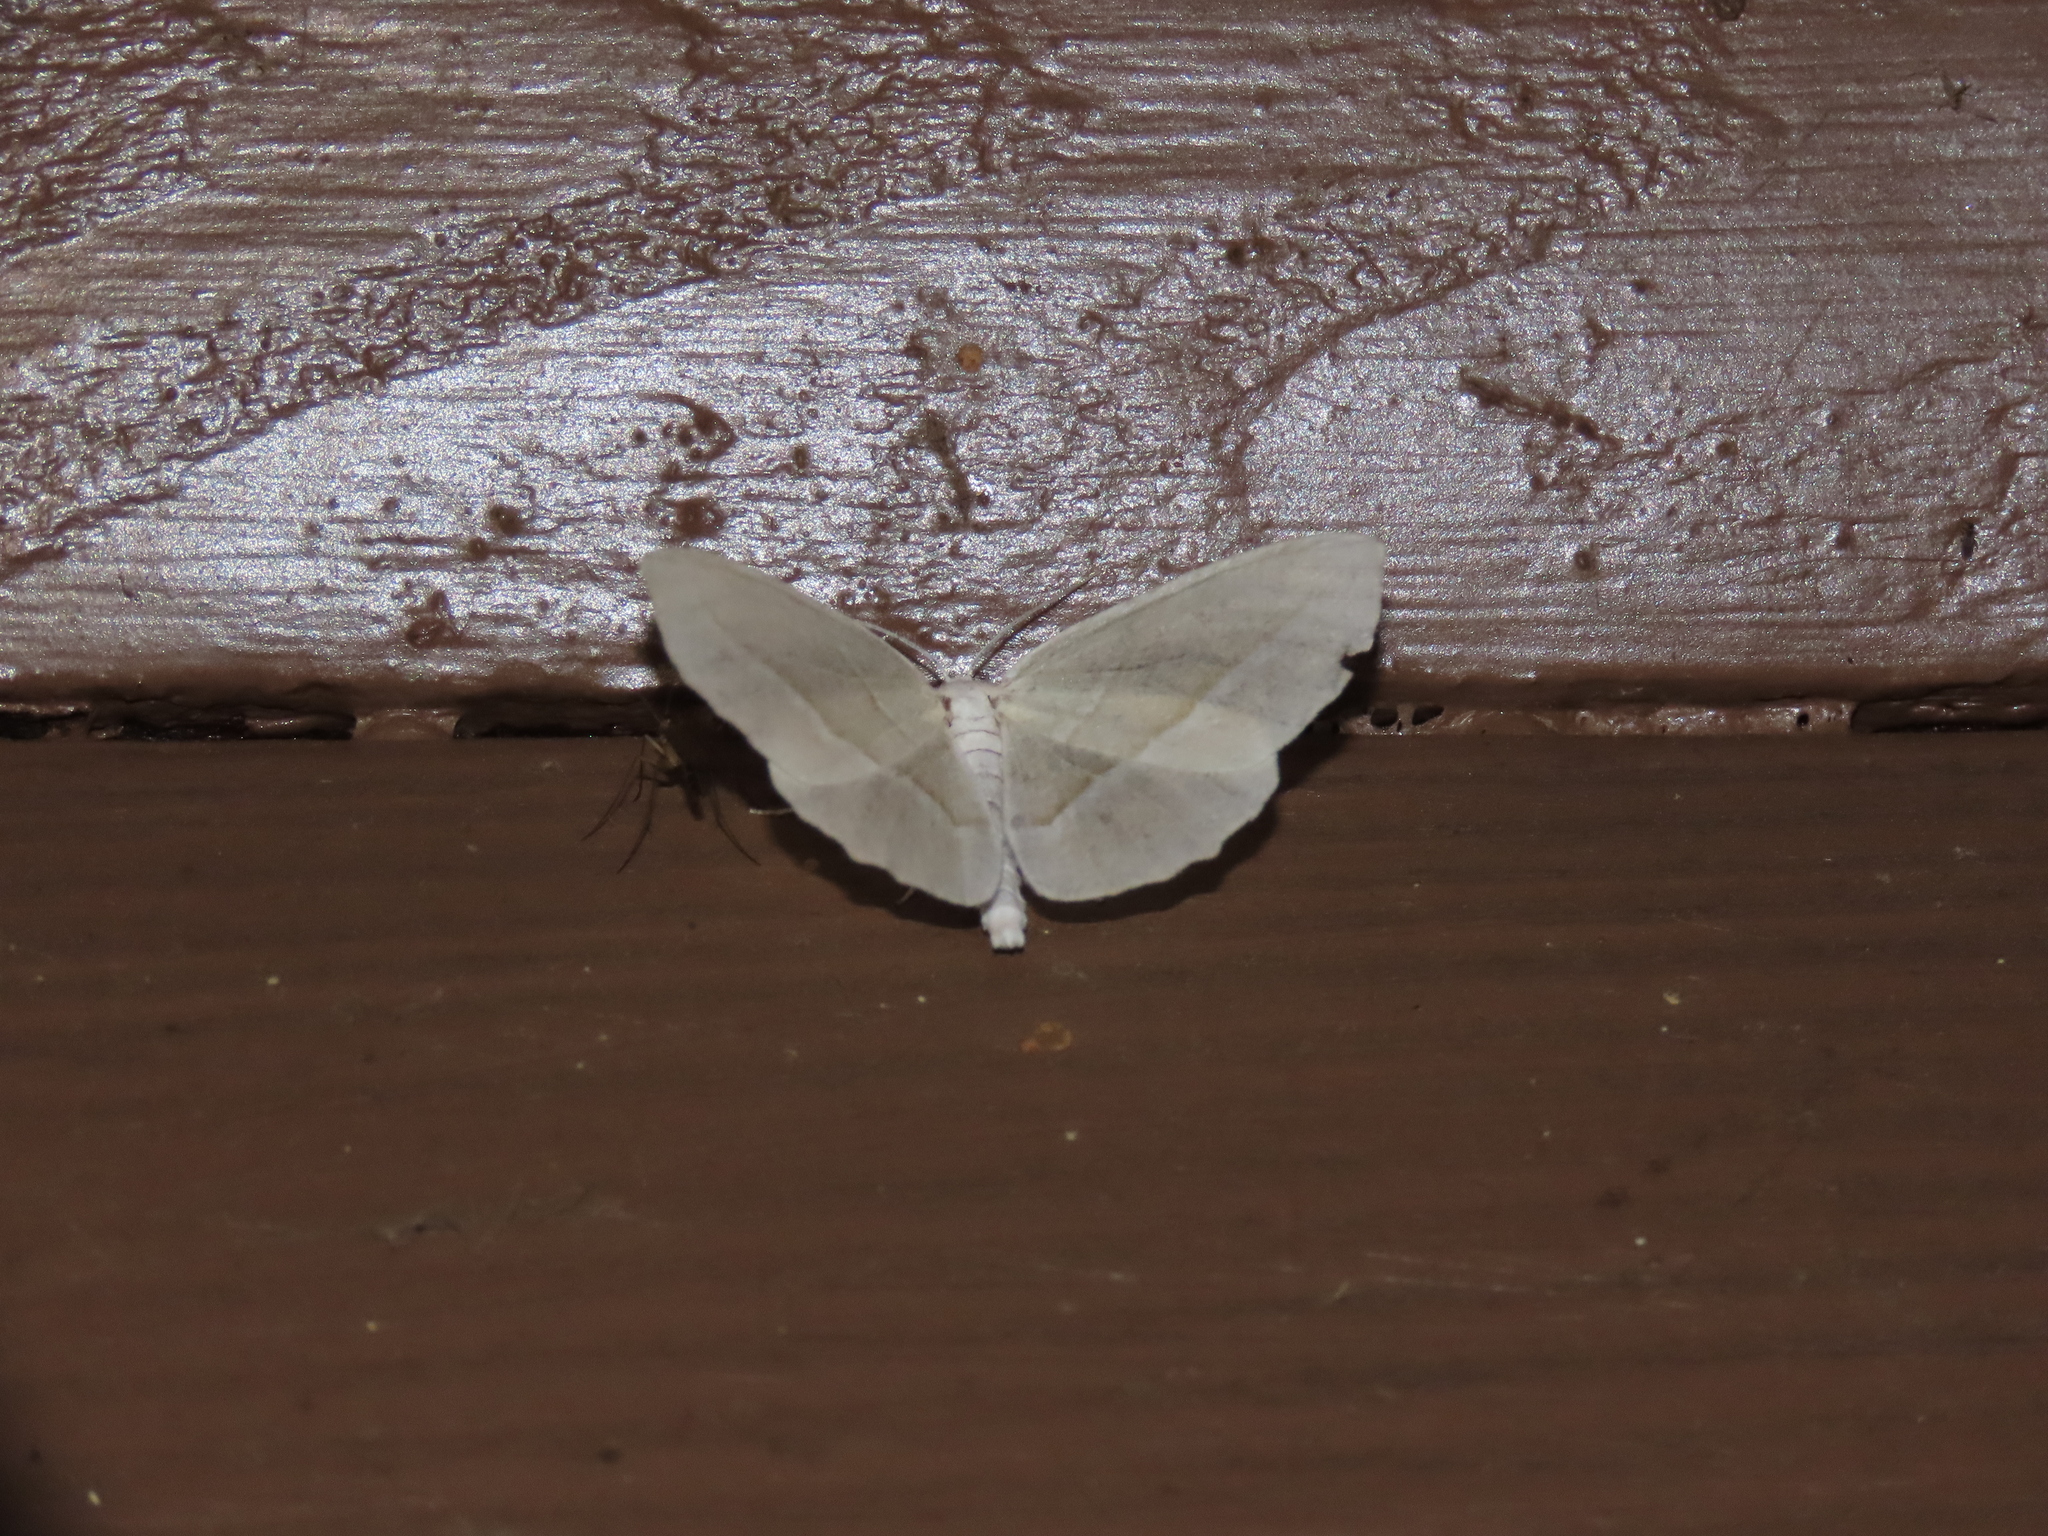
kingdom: Animalia
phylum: Arthropoda
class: Insecta
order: Lepidoptera
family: Geometridae
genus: Campaea
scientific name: Campaea perlata
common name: Fringed looper
